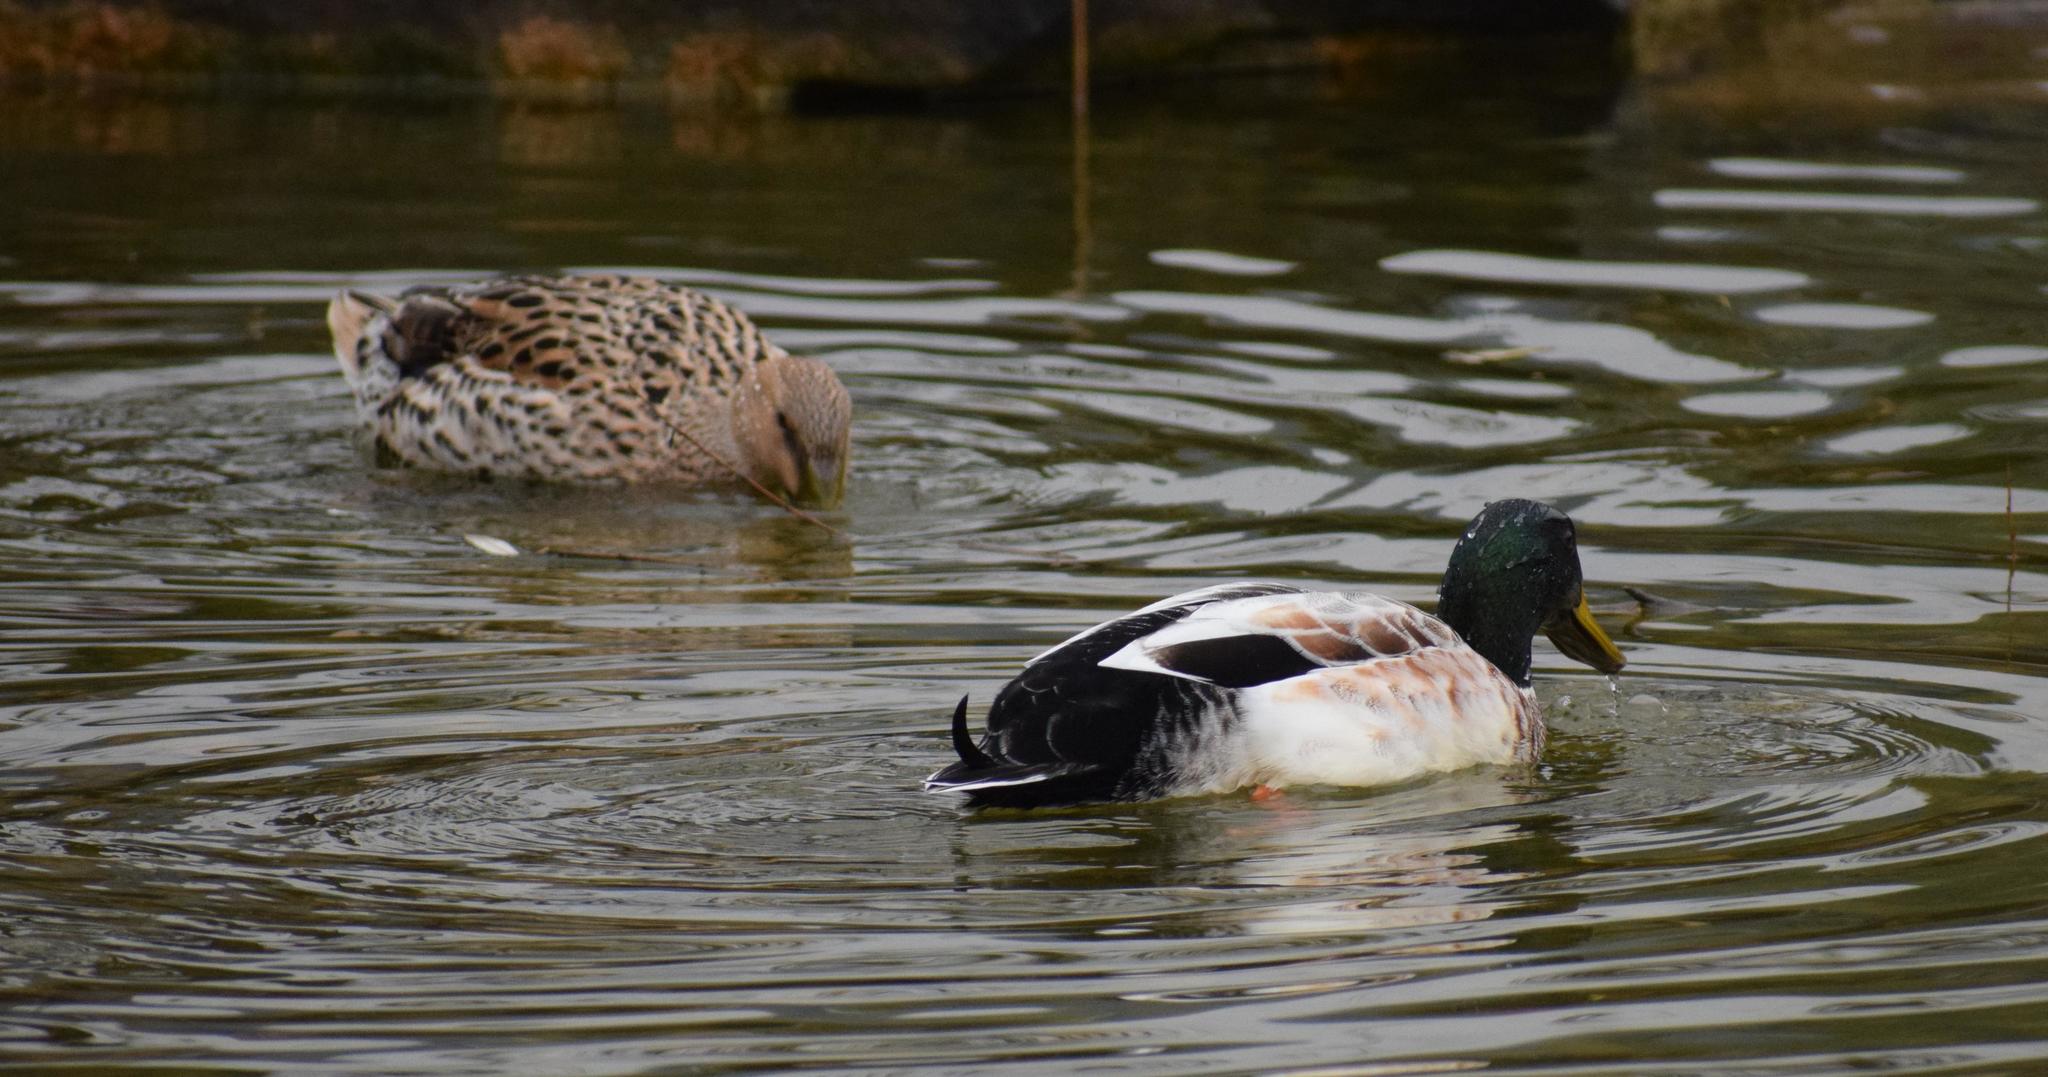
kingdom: Animalia
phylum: Chordata
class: Aves
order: Anseriformes
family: Anatidae
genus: Anas
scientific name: Anas platyrhynchos
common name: Mallard
